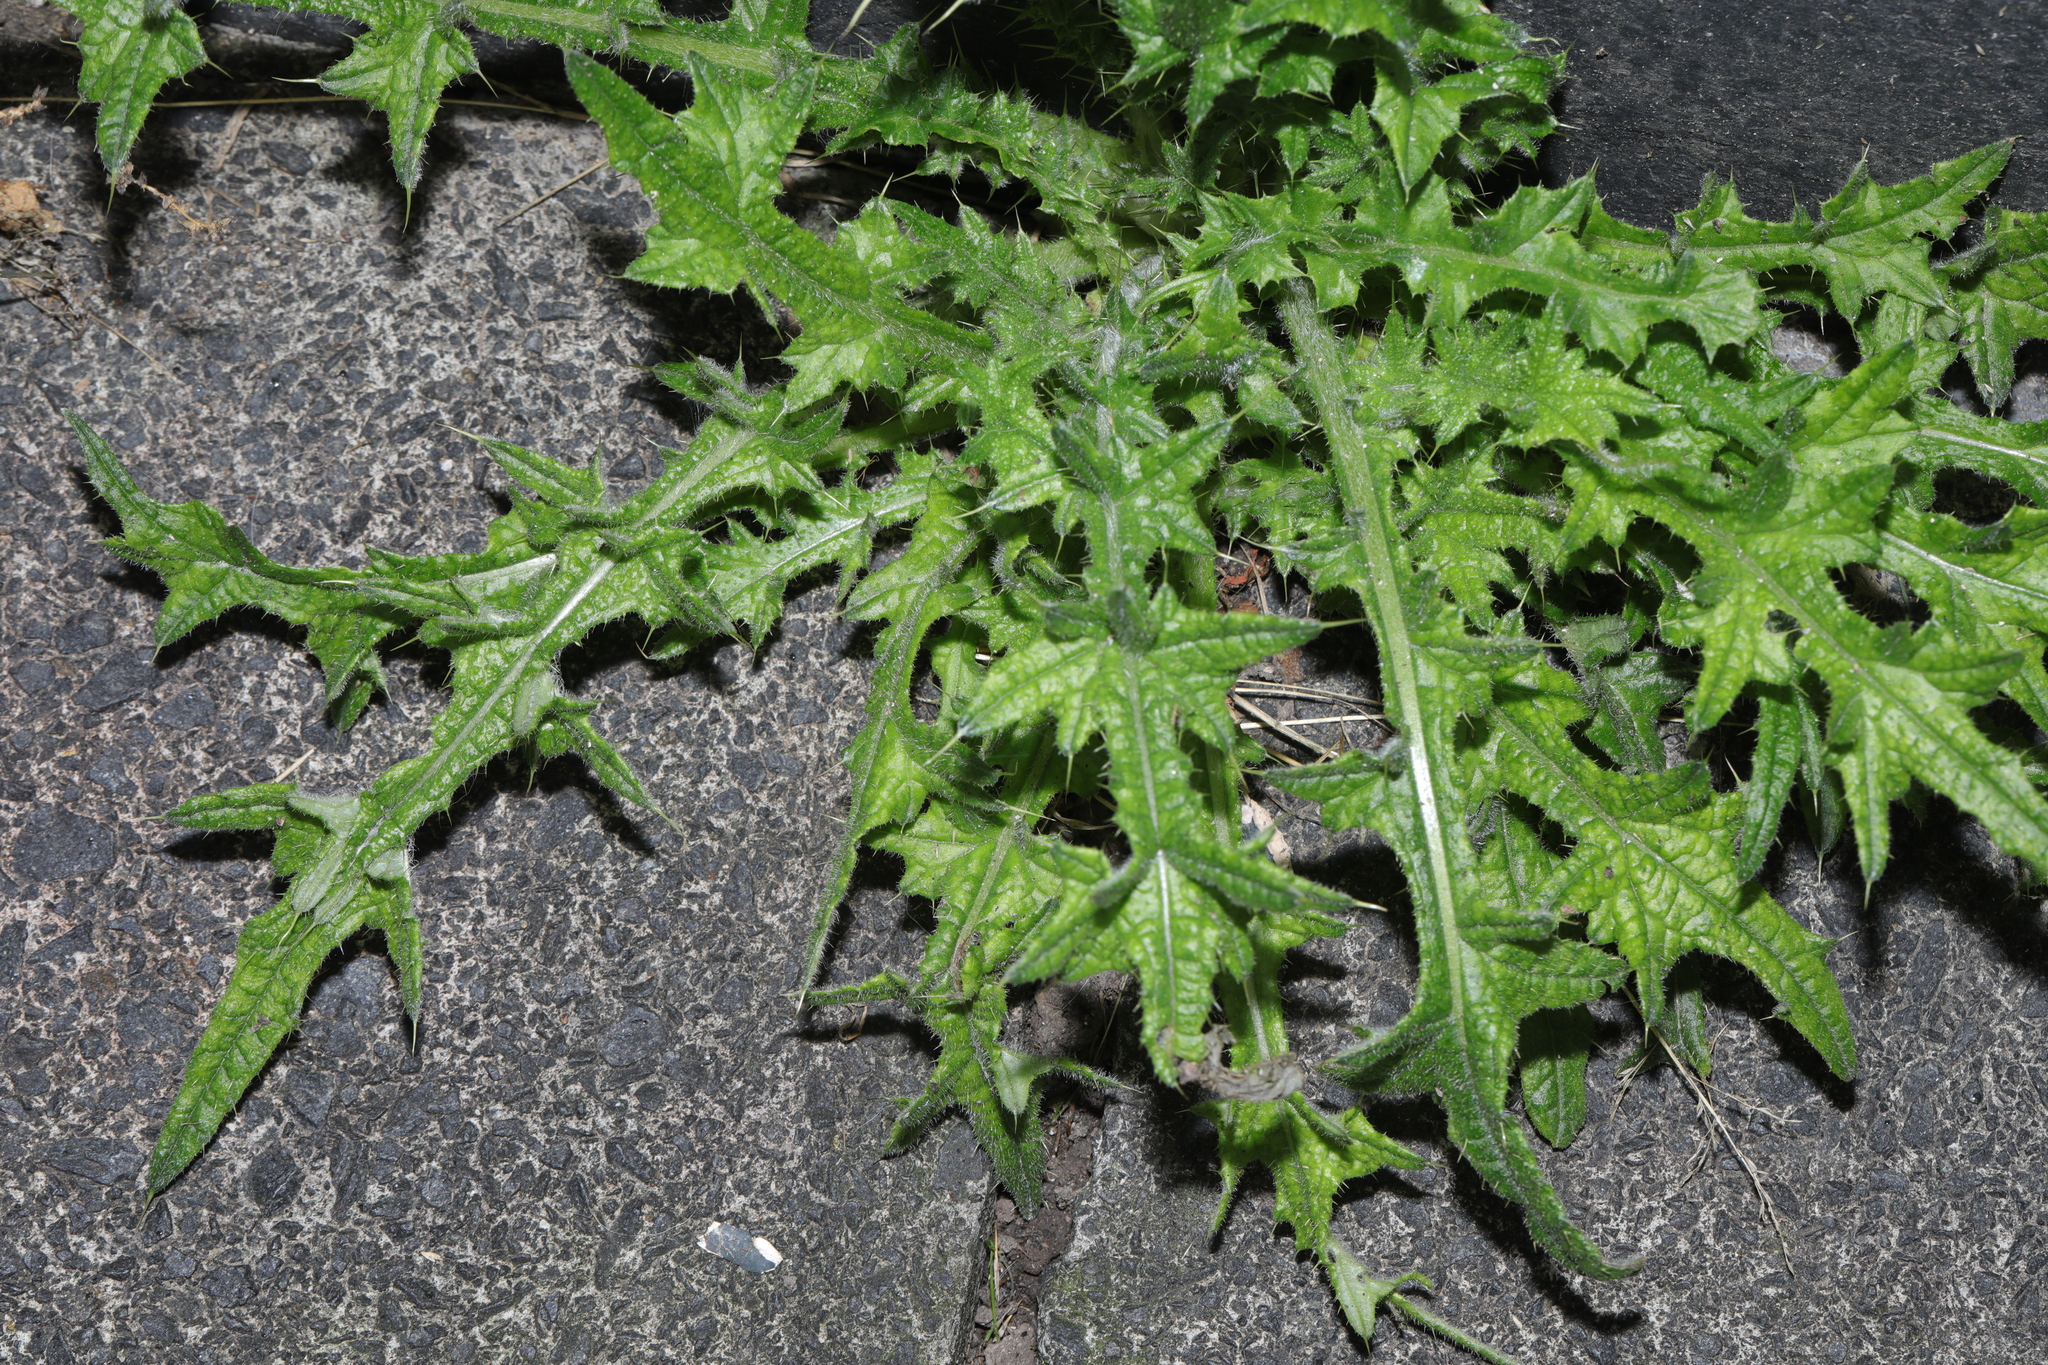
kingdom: Plantae
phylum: Tracheophyta
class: Magnoliopsida
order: Asterales
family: Asteraceae
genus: Cirsium
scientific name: Cirsium vulgare
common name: Bull thistle
